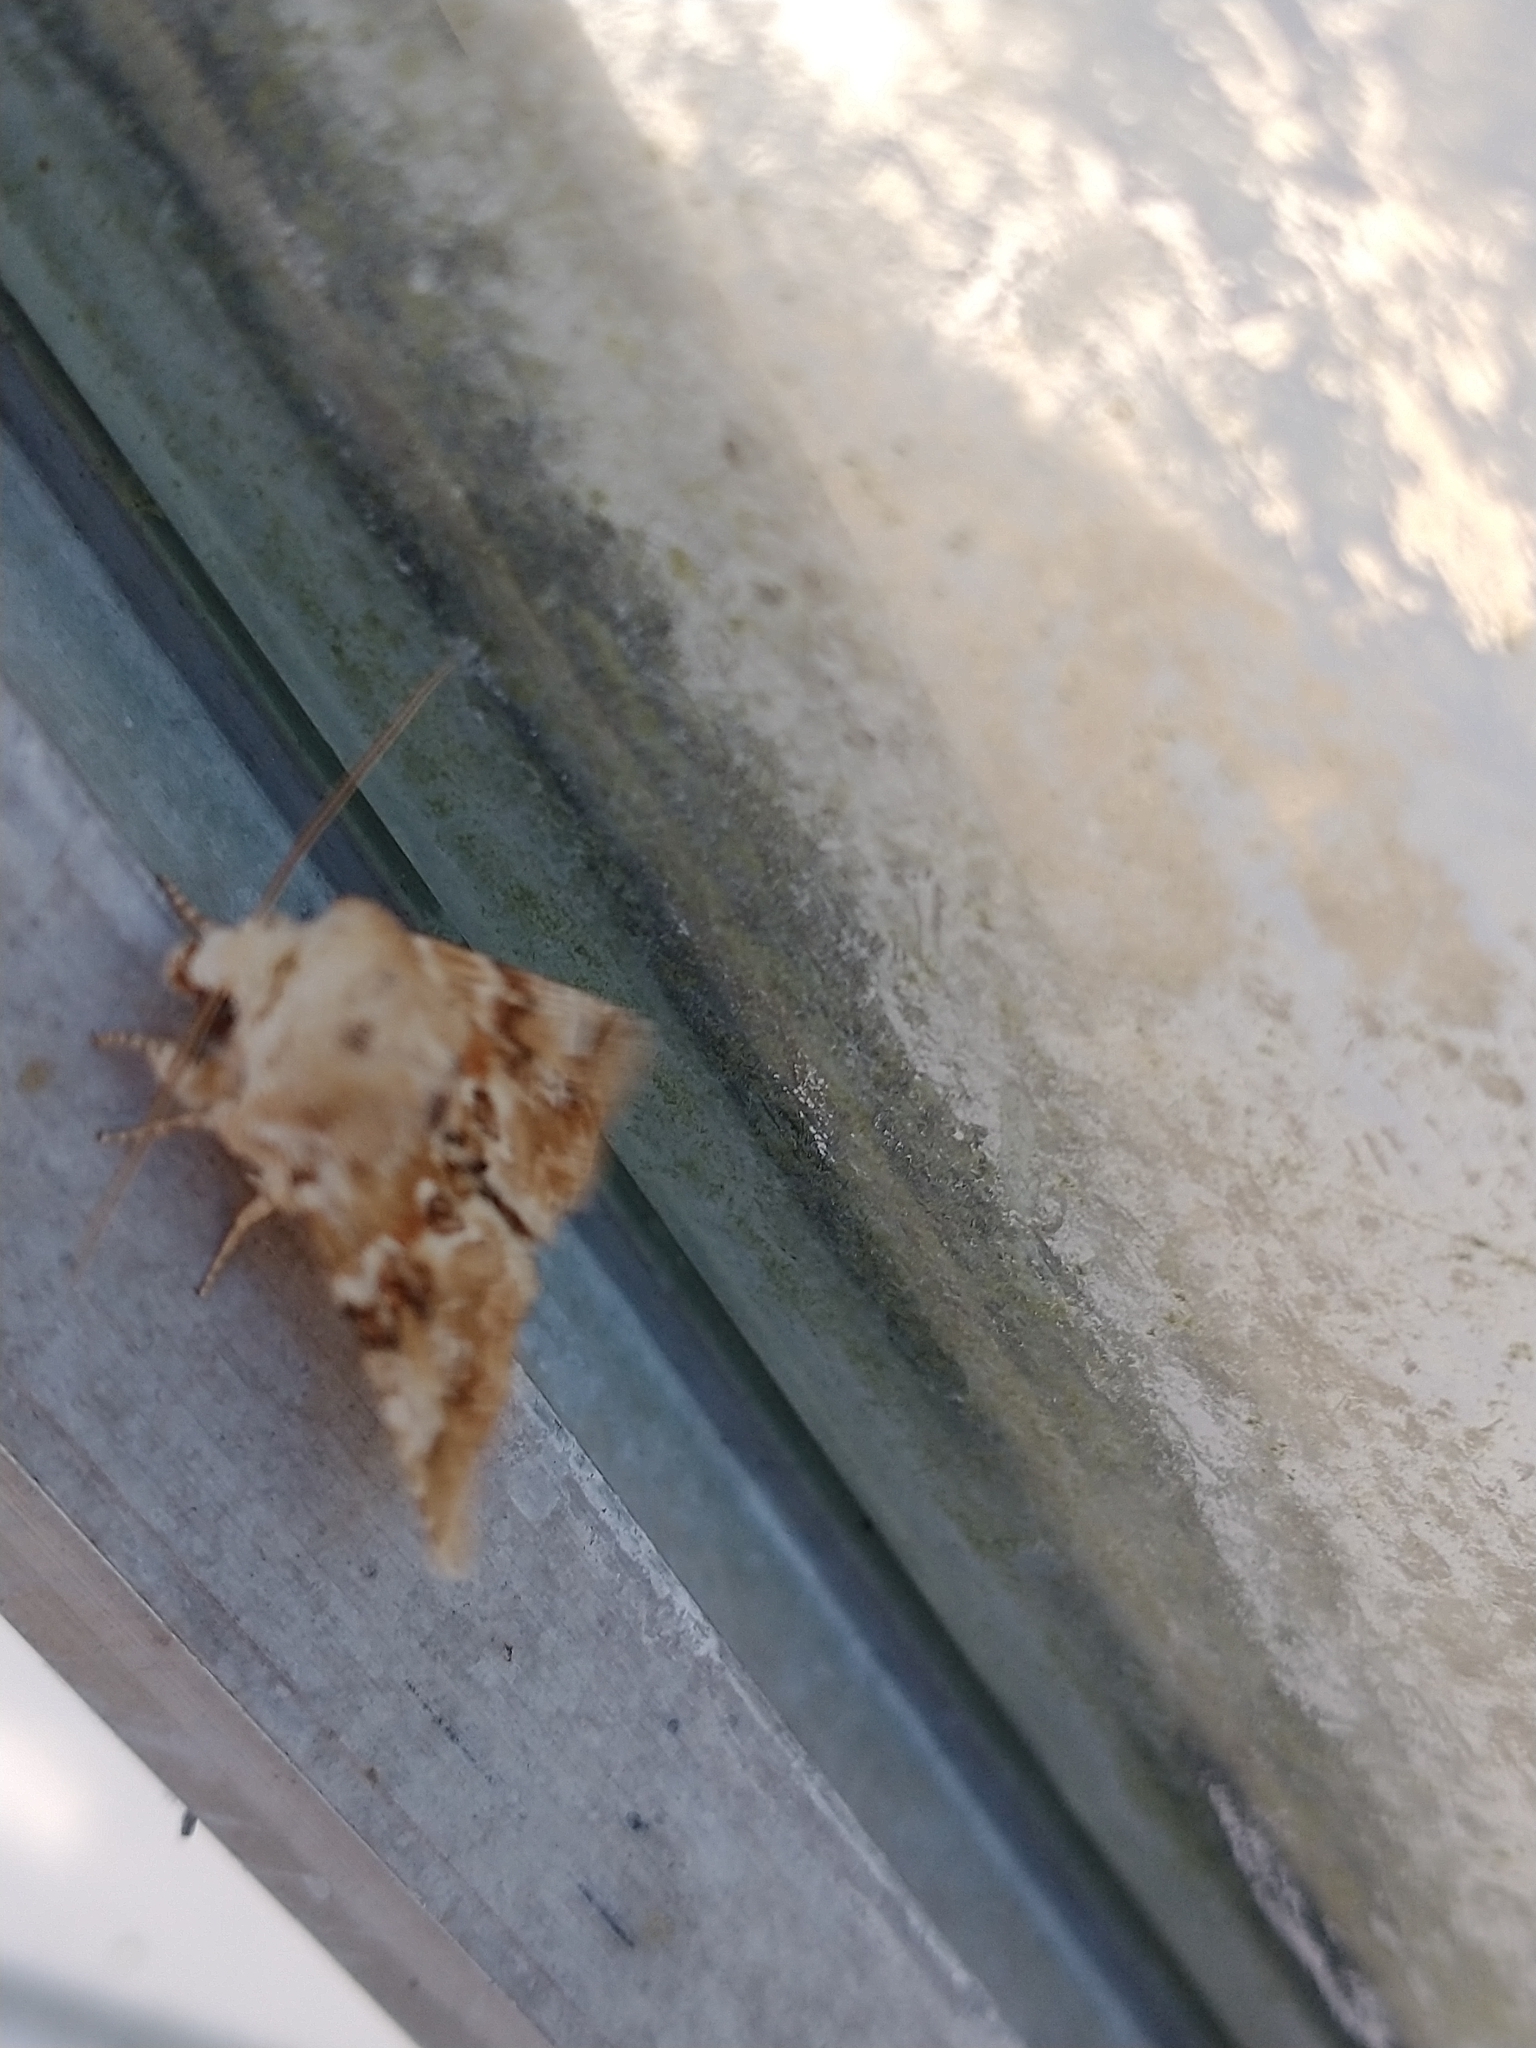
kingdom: Animalia
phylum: Arthropoda
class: Insecta
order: Lepidoptera
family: Noctuidae
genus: Eremobia
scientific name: Eremobia ochroleuca
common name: Dusky sallow
